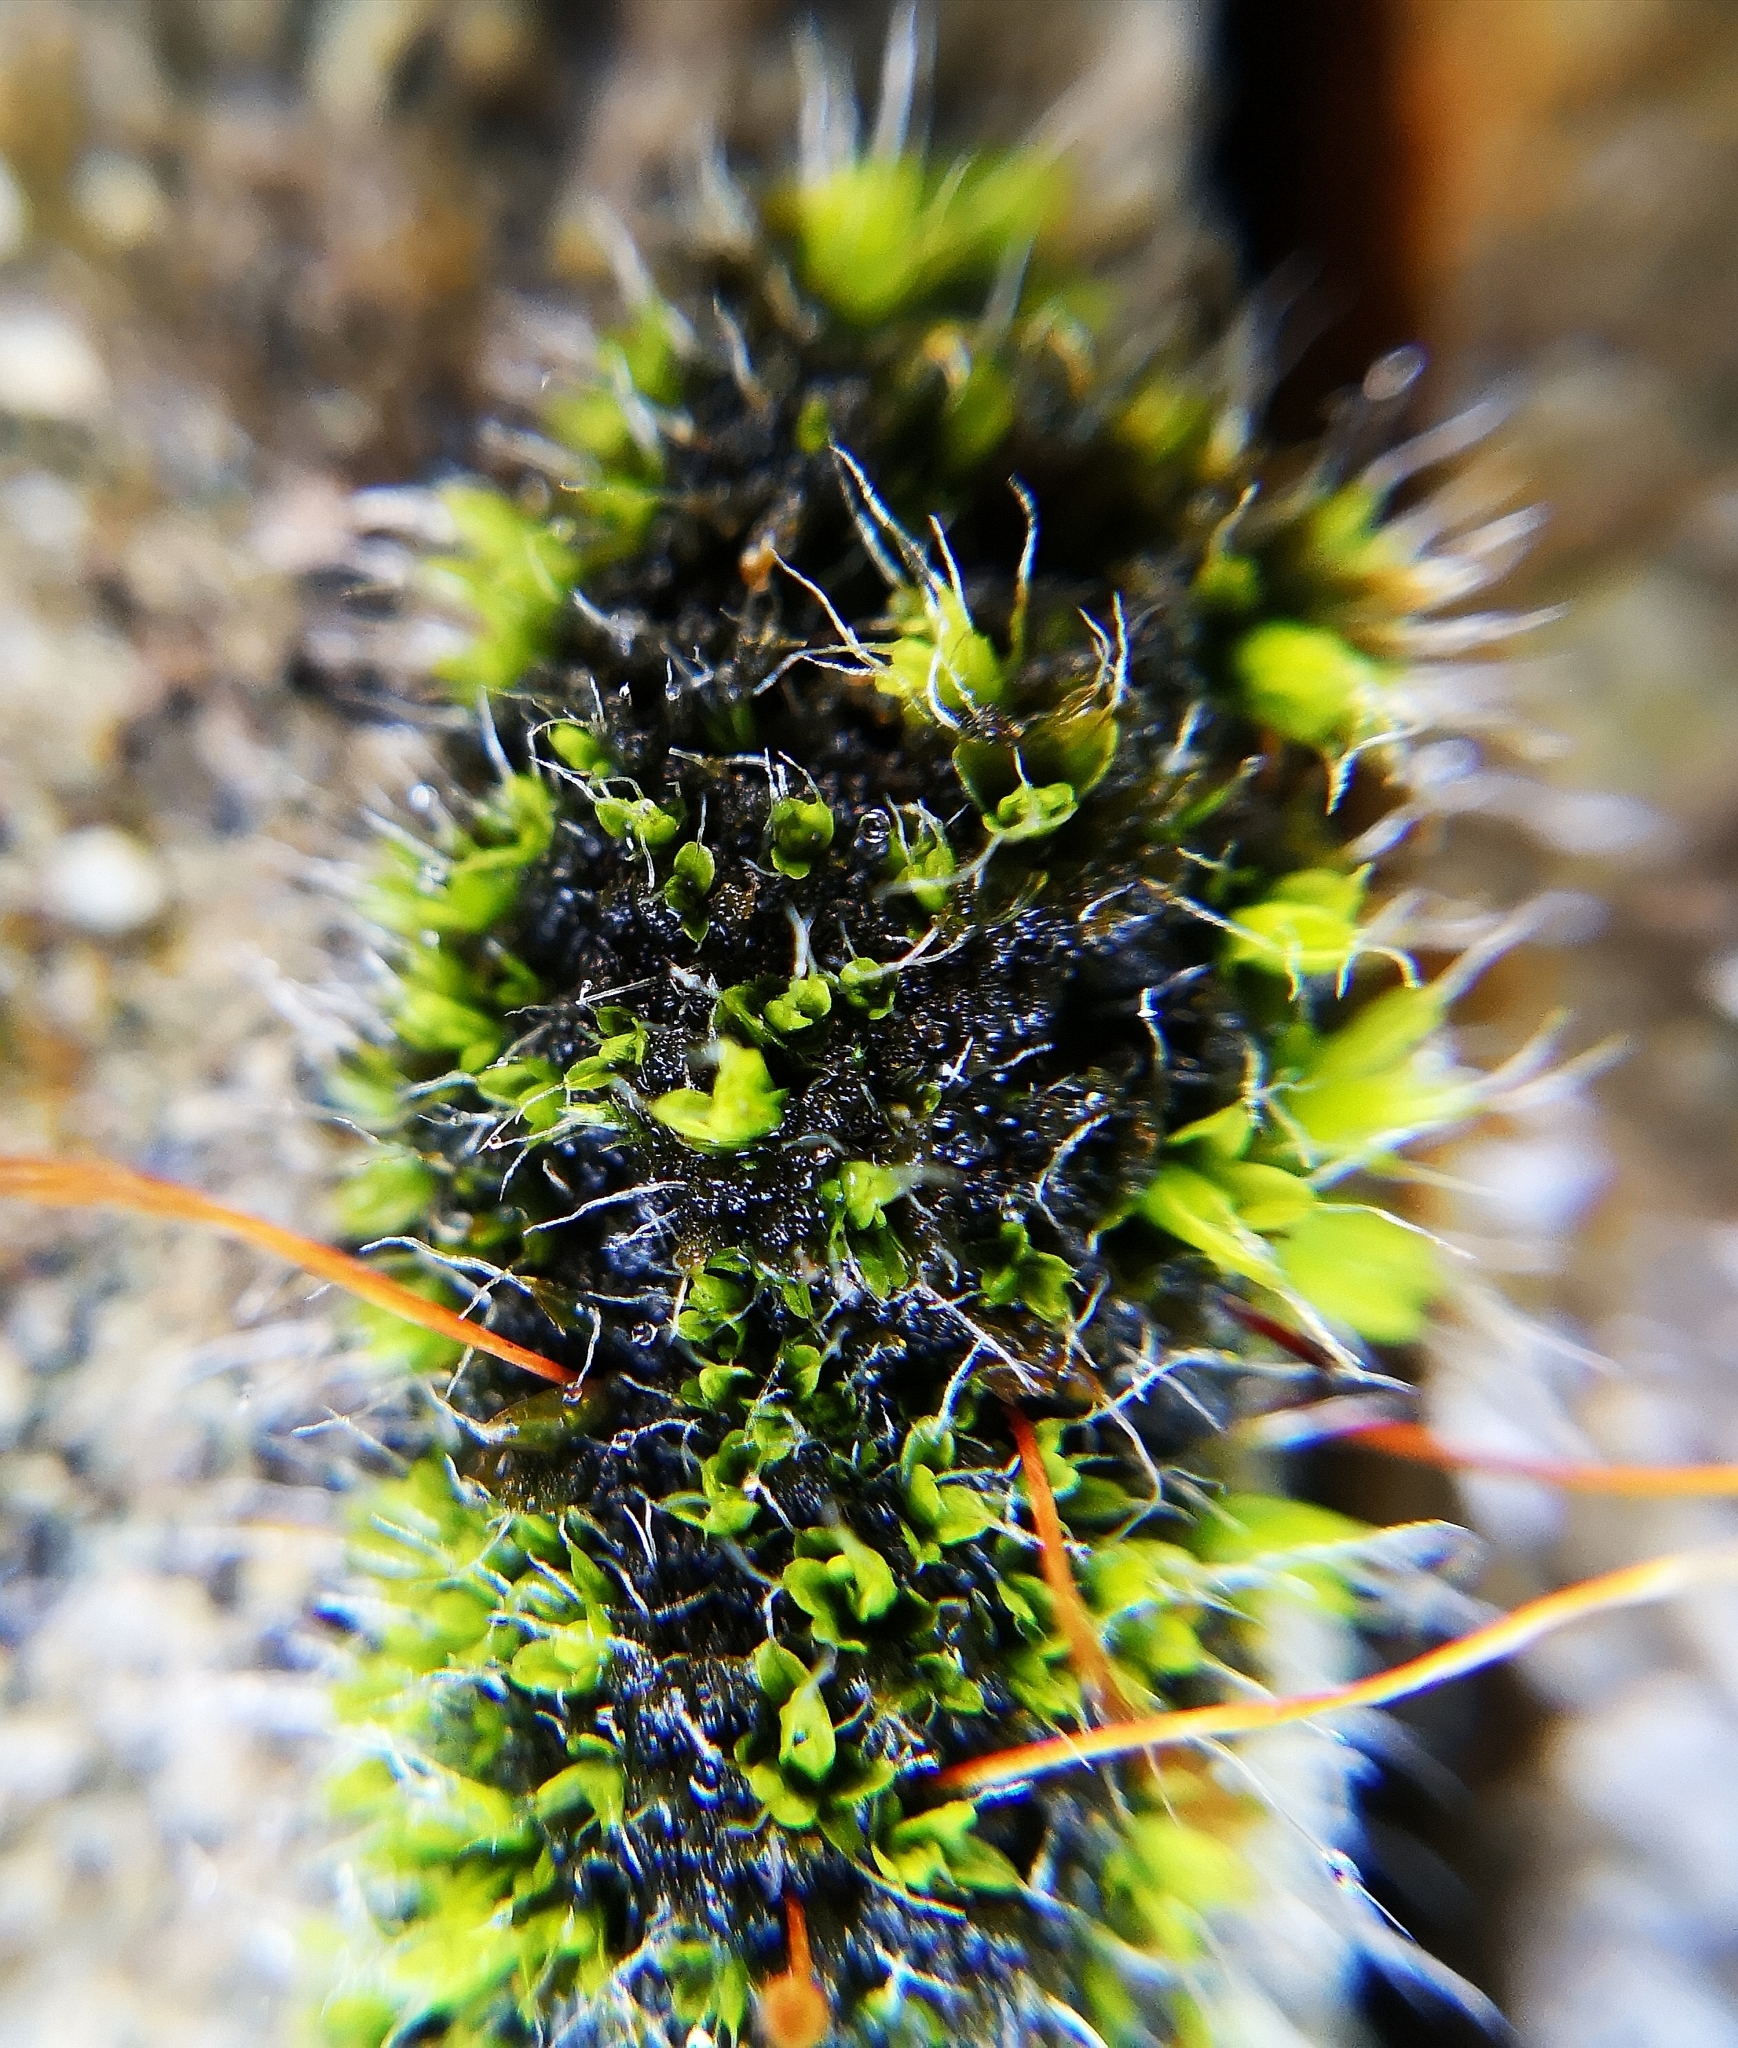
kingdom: Plantae
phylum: Bryophyta
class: Bryopsida
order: Pottiales
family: Pottiaceae
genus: Tortula
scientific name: Tortula muralis
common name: Wall screw-moss
